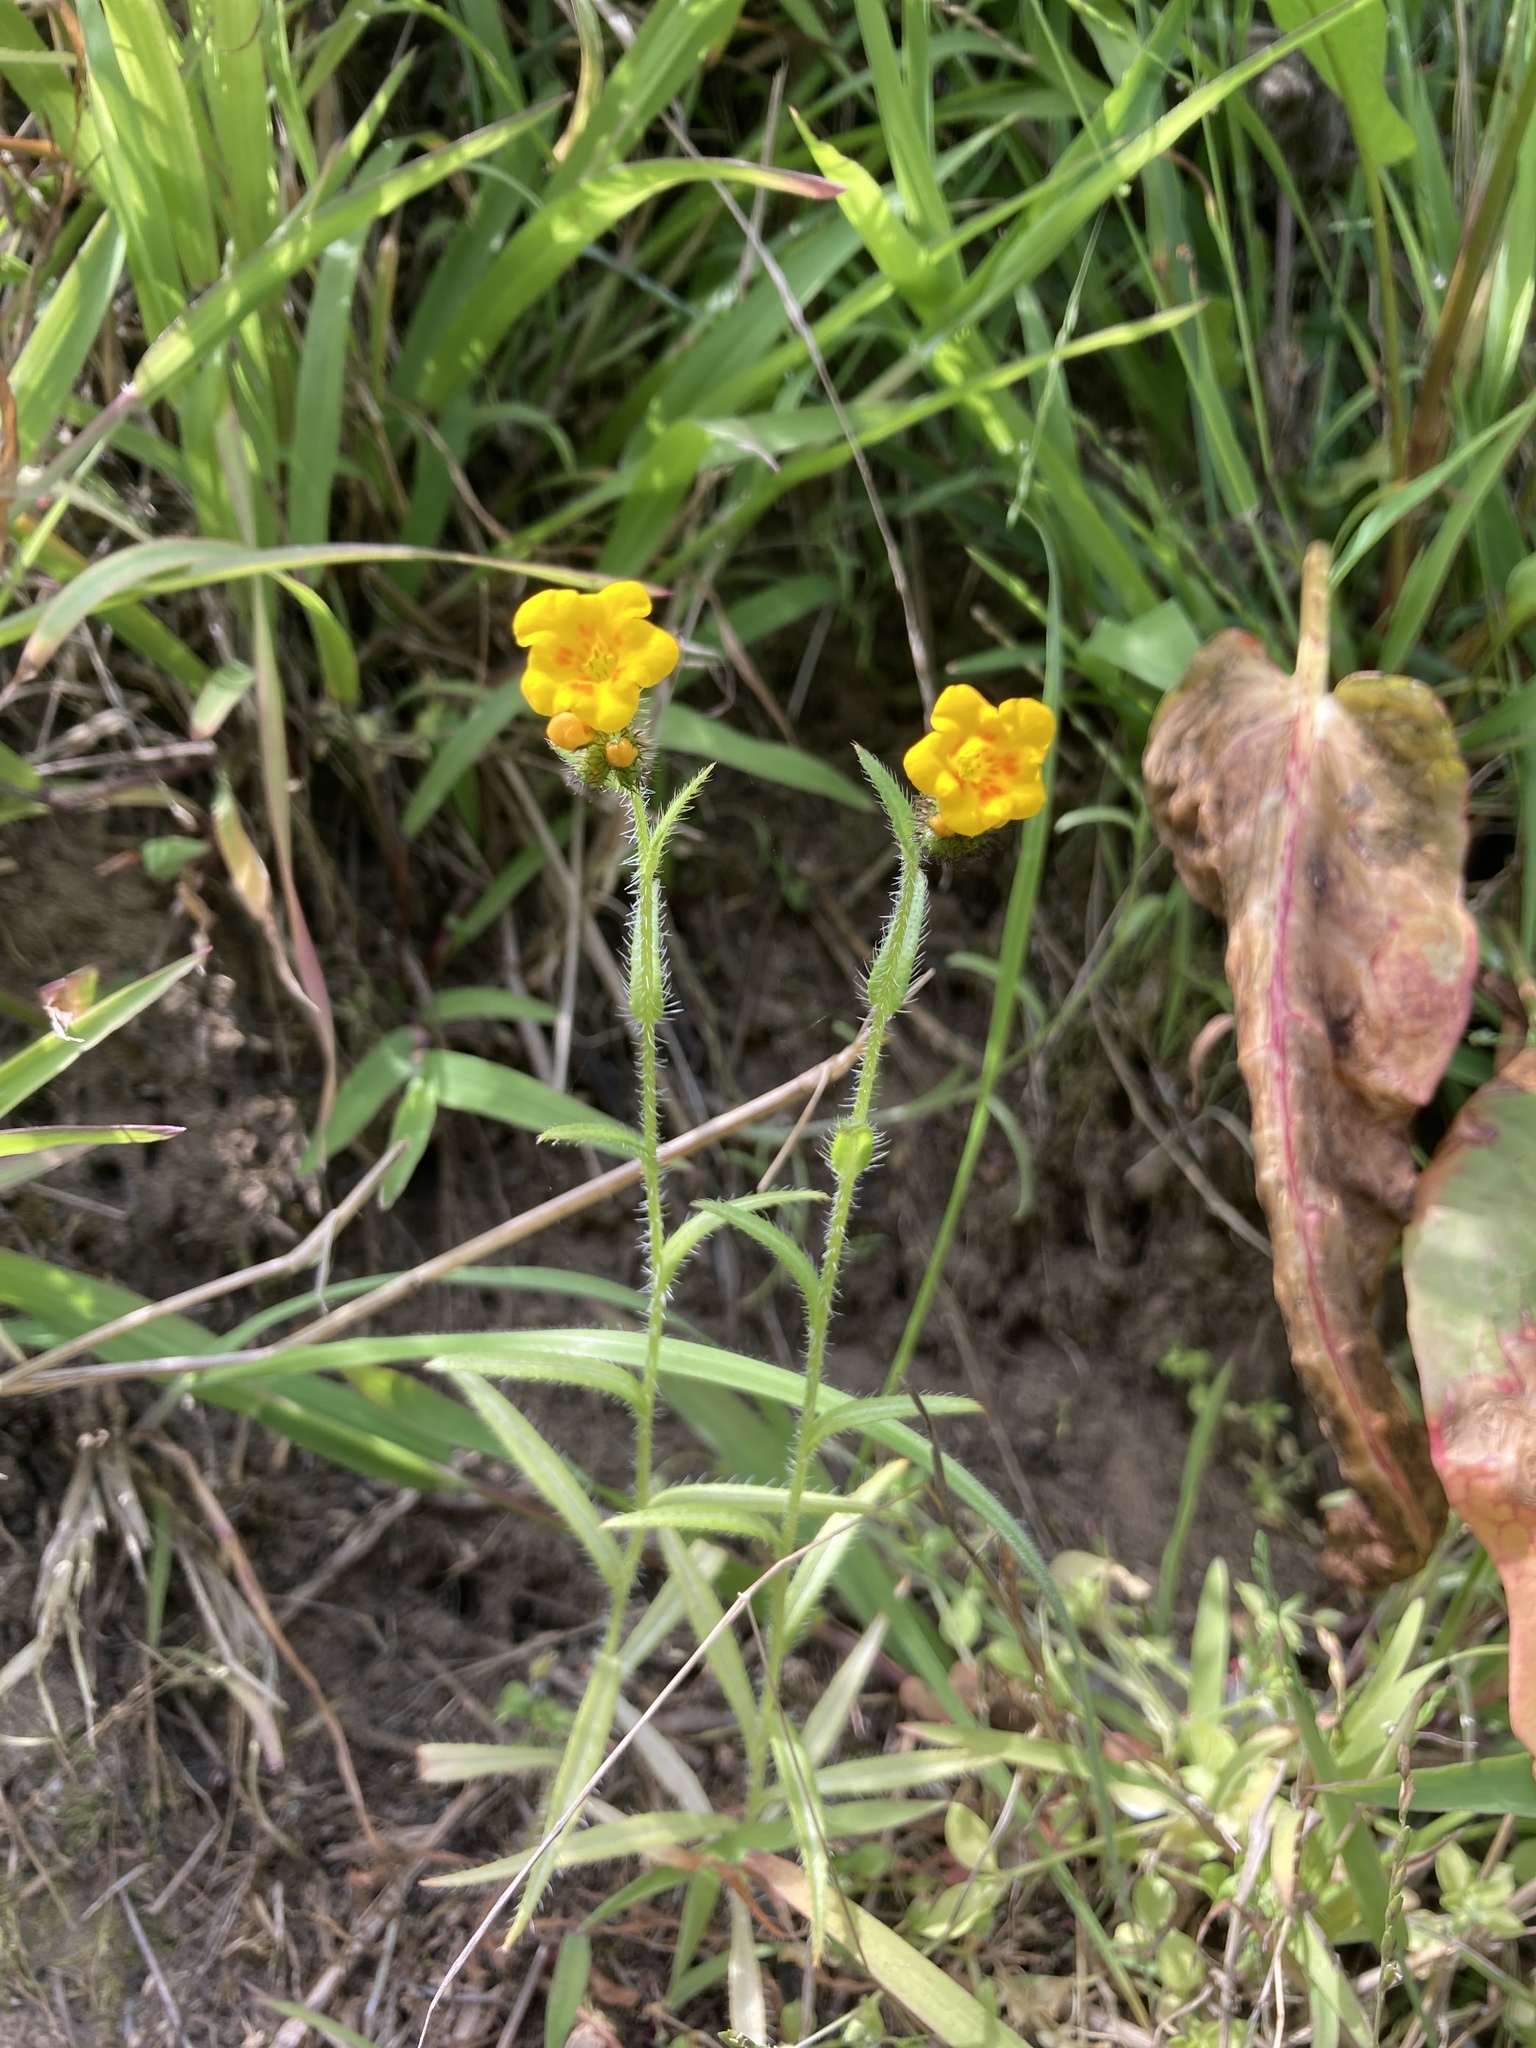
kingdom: Plantae
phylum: Tracheophyta
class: Magnoliopsida
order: Boraginales
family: Boraginaceae
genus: Amsinckia
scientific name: Amsinckia menziesii
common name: Menzies' fiddleneck
